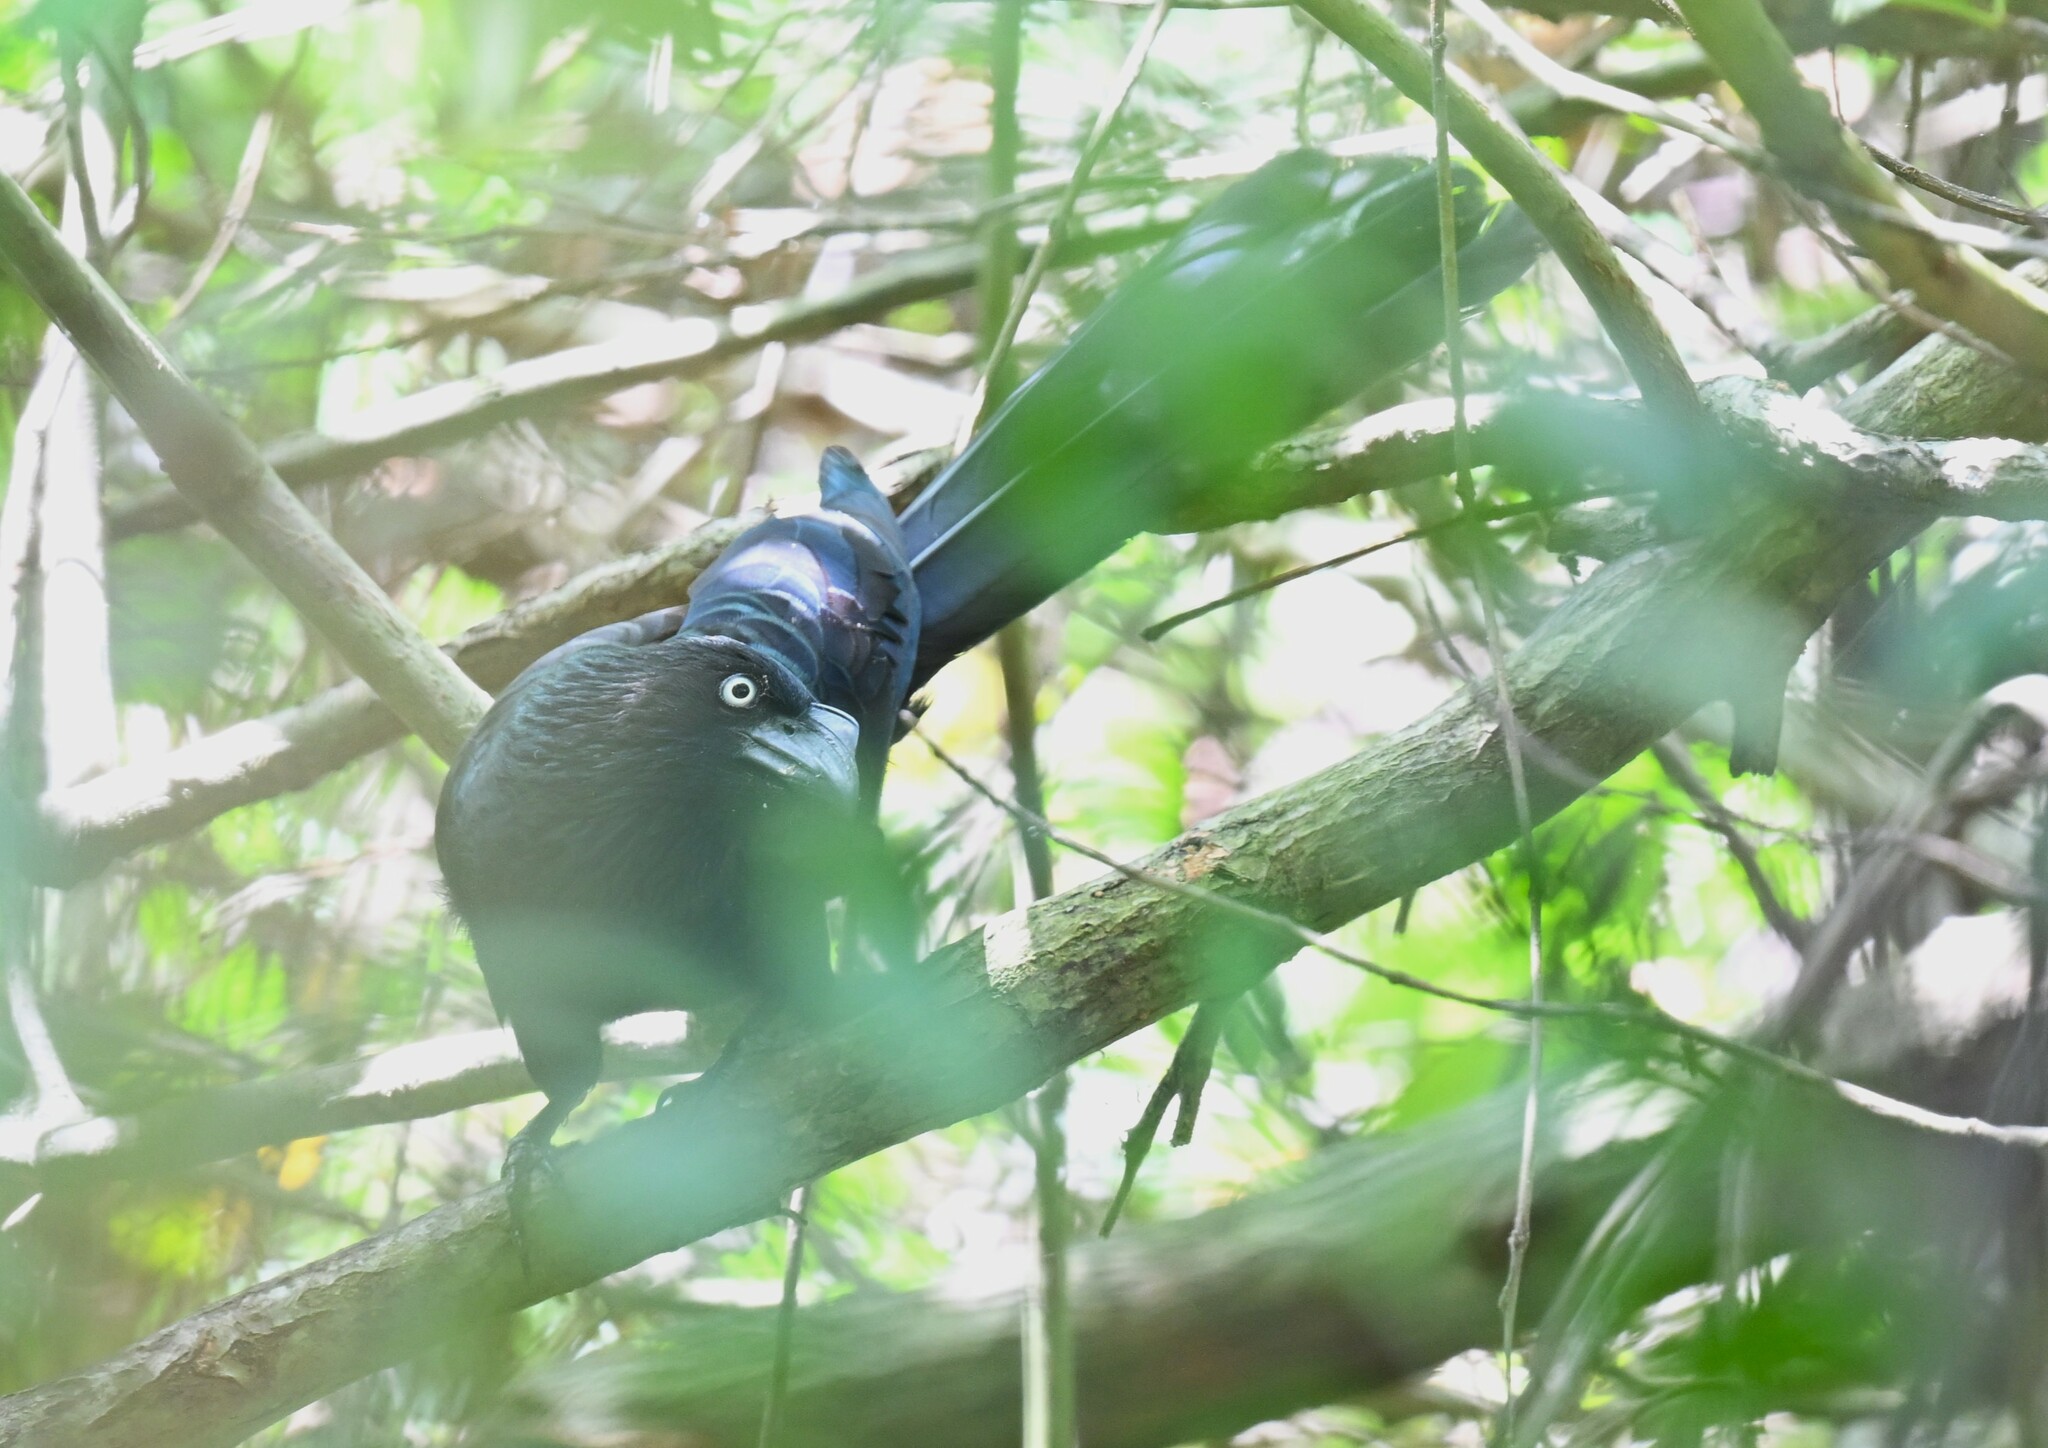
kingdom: Animalia
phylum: Chordata
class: Aves
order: Cuculiformes
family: Cuculidae
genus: Crotophaga
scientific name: Crotophaga major
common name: Greater ani
